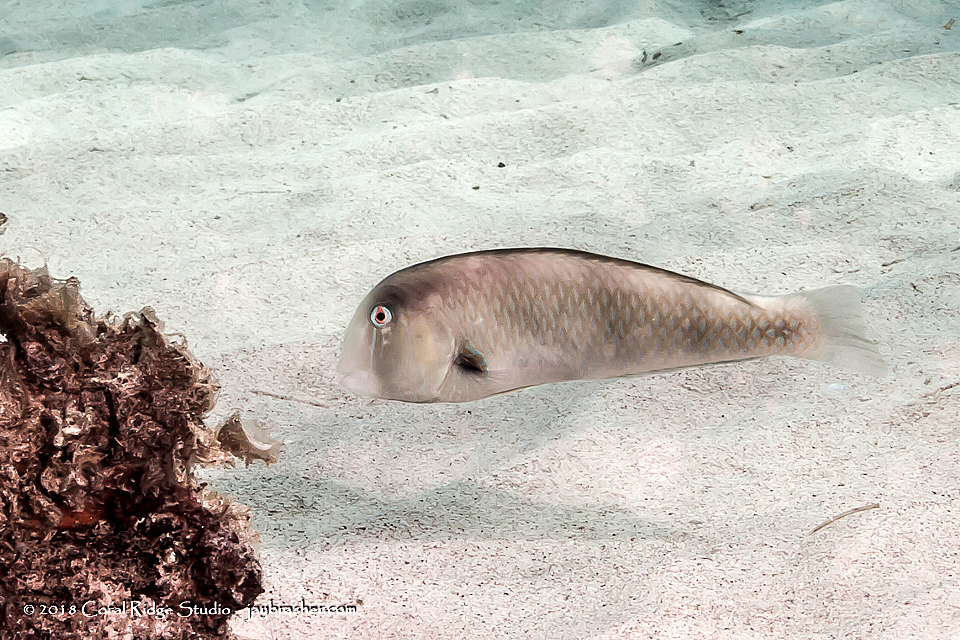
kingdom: Animalia
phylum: Chordata
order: Perciformes
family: Labridae
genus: Xyrichtys
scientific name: Xyrichtys martinicensis
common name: Rosy razorfish
